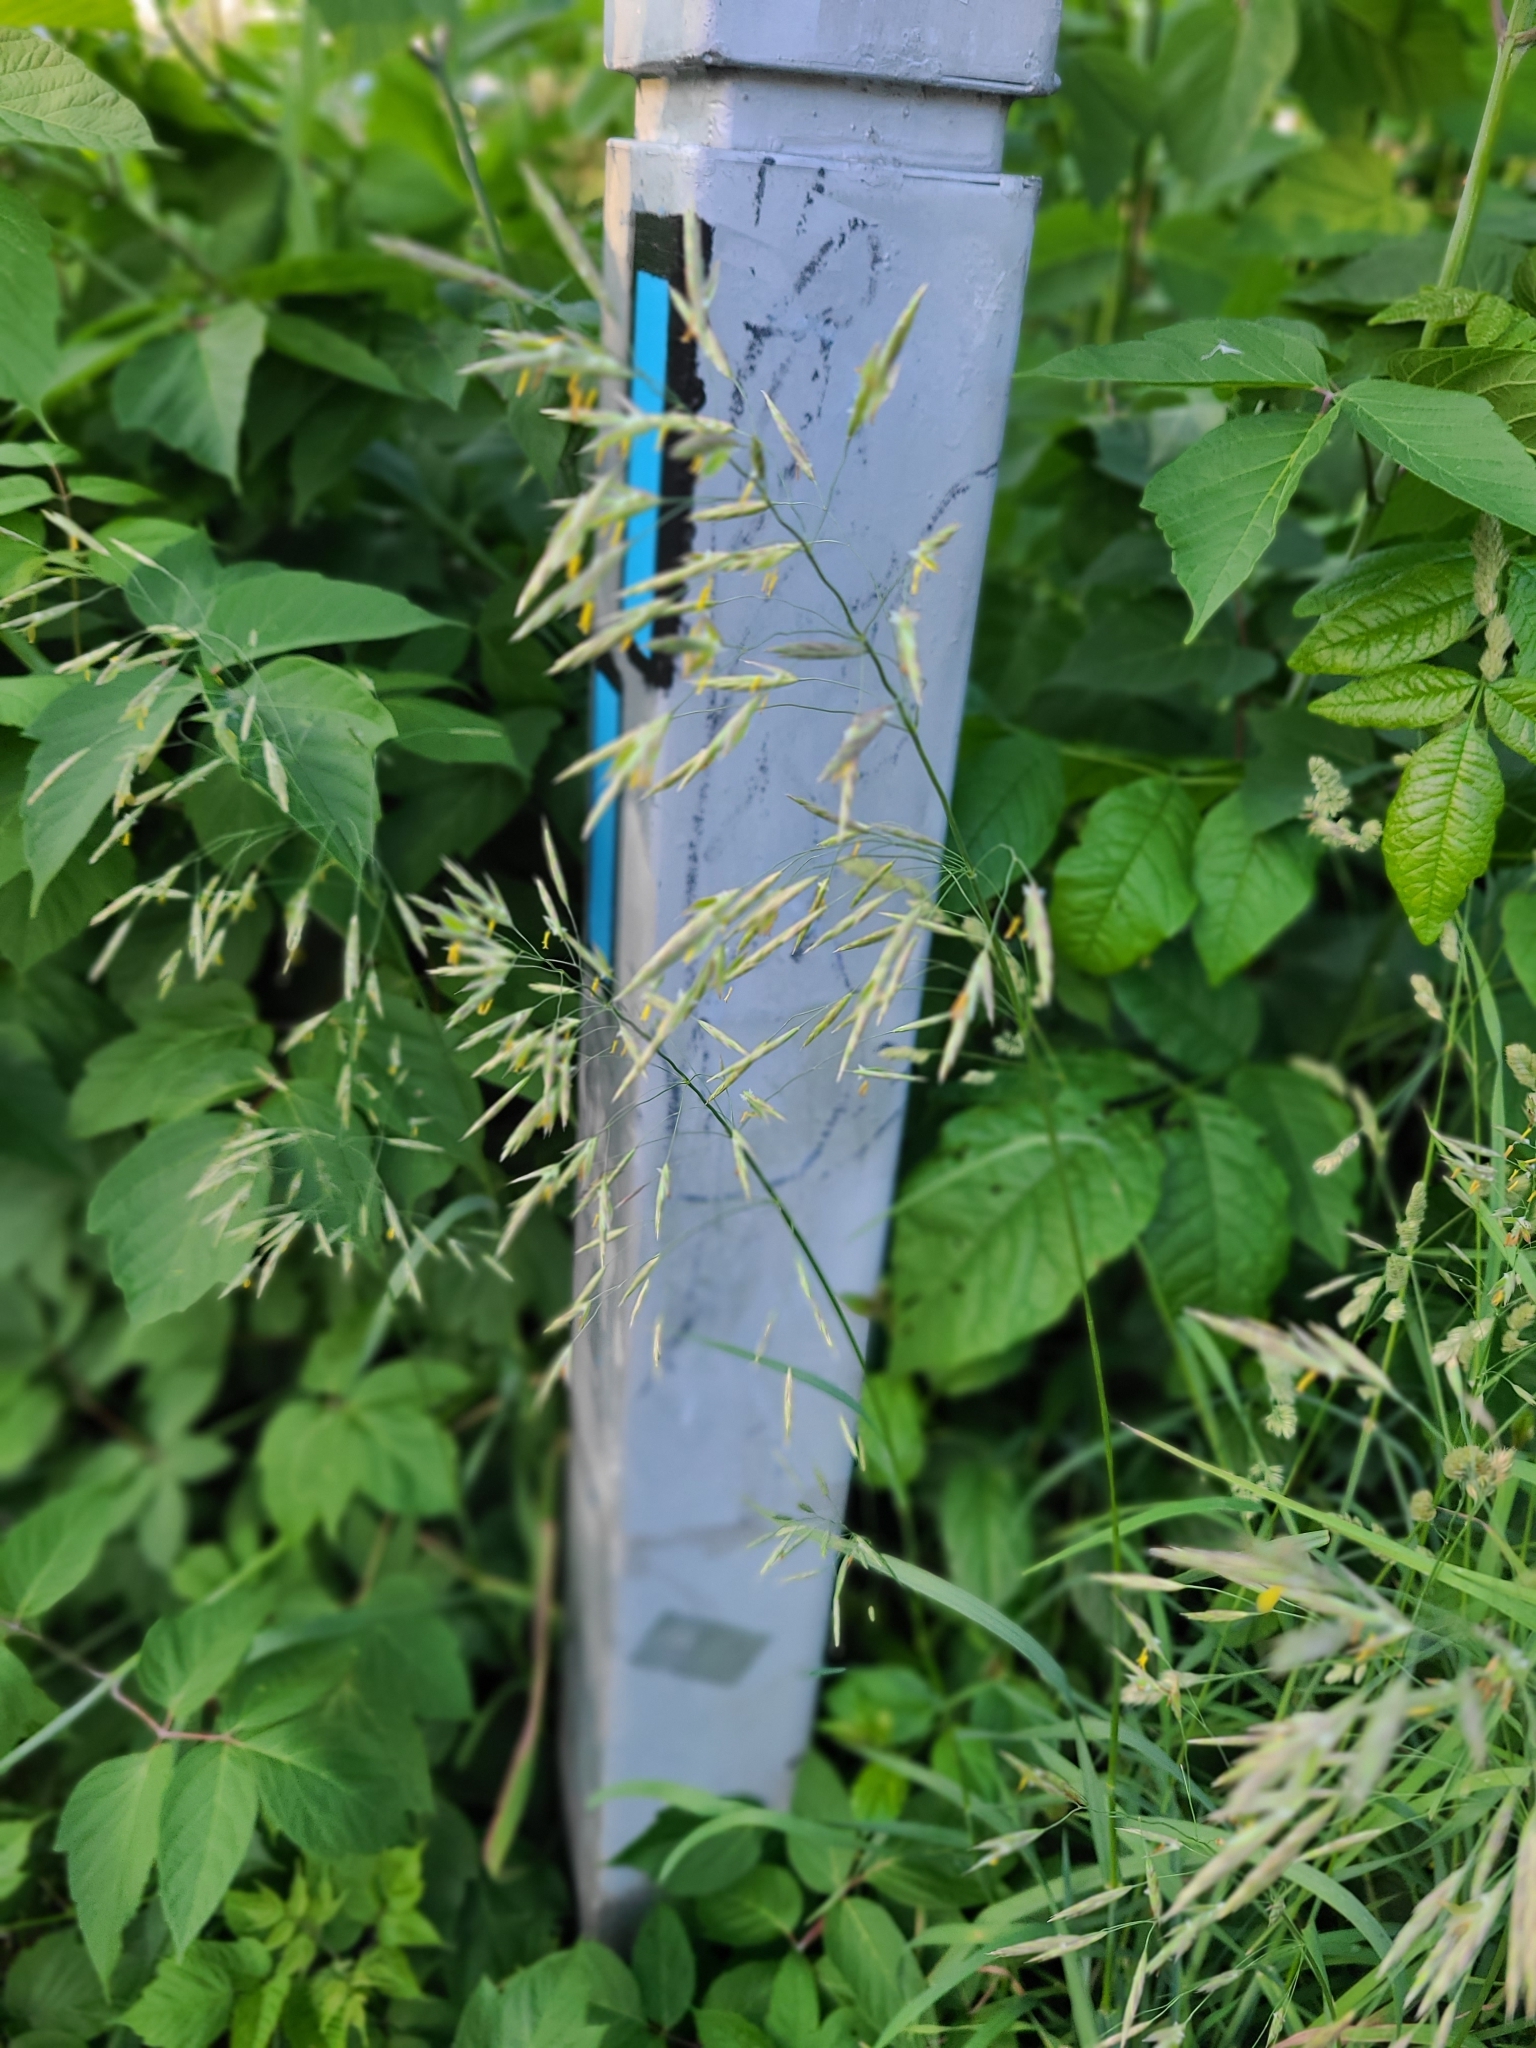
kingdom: Plantae
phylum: Tracheophyta
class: Liliopsida
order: Poales
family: Poaceae
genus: Bromus
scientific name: Bromus inermis
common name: Smooth brome
